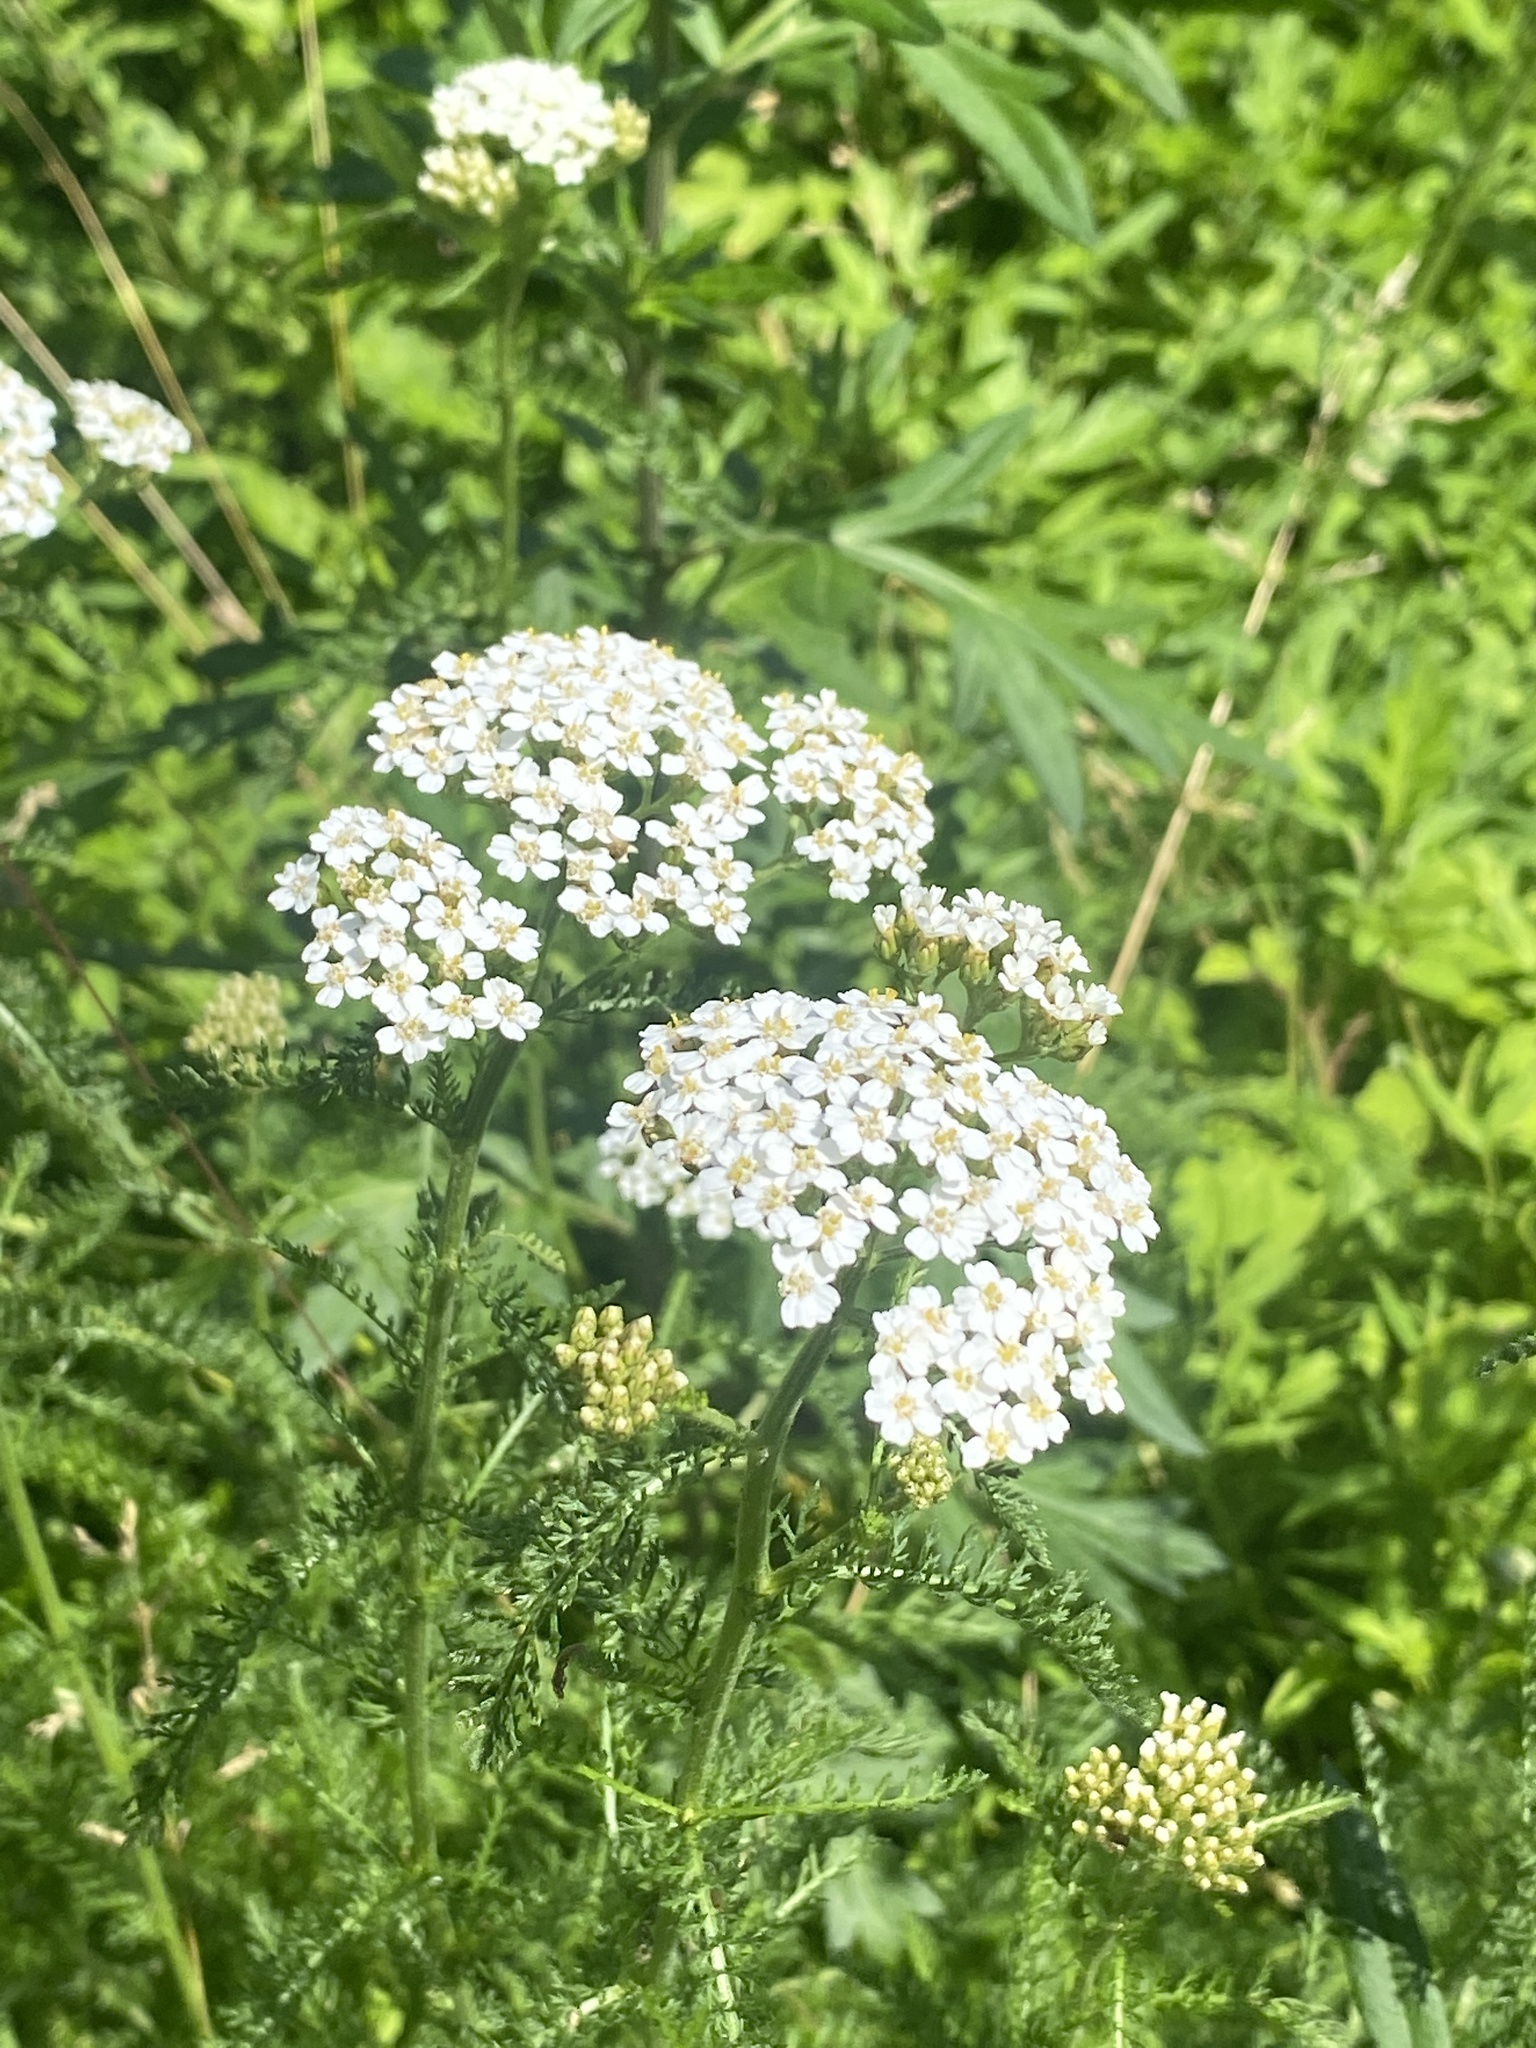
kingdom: Plantae
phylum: Tracheophyta
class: Magnoliopsida
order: Asterales
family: Asteraceae
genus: Achillea
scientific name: Achillea millefolium
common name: Yarrow
